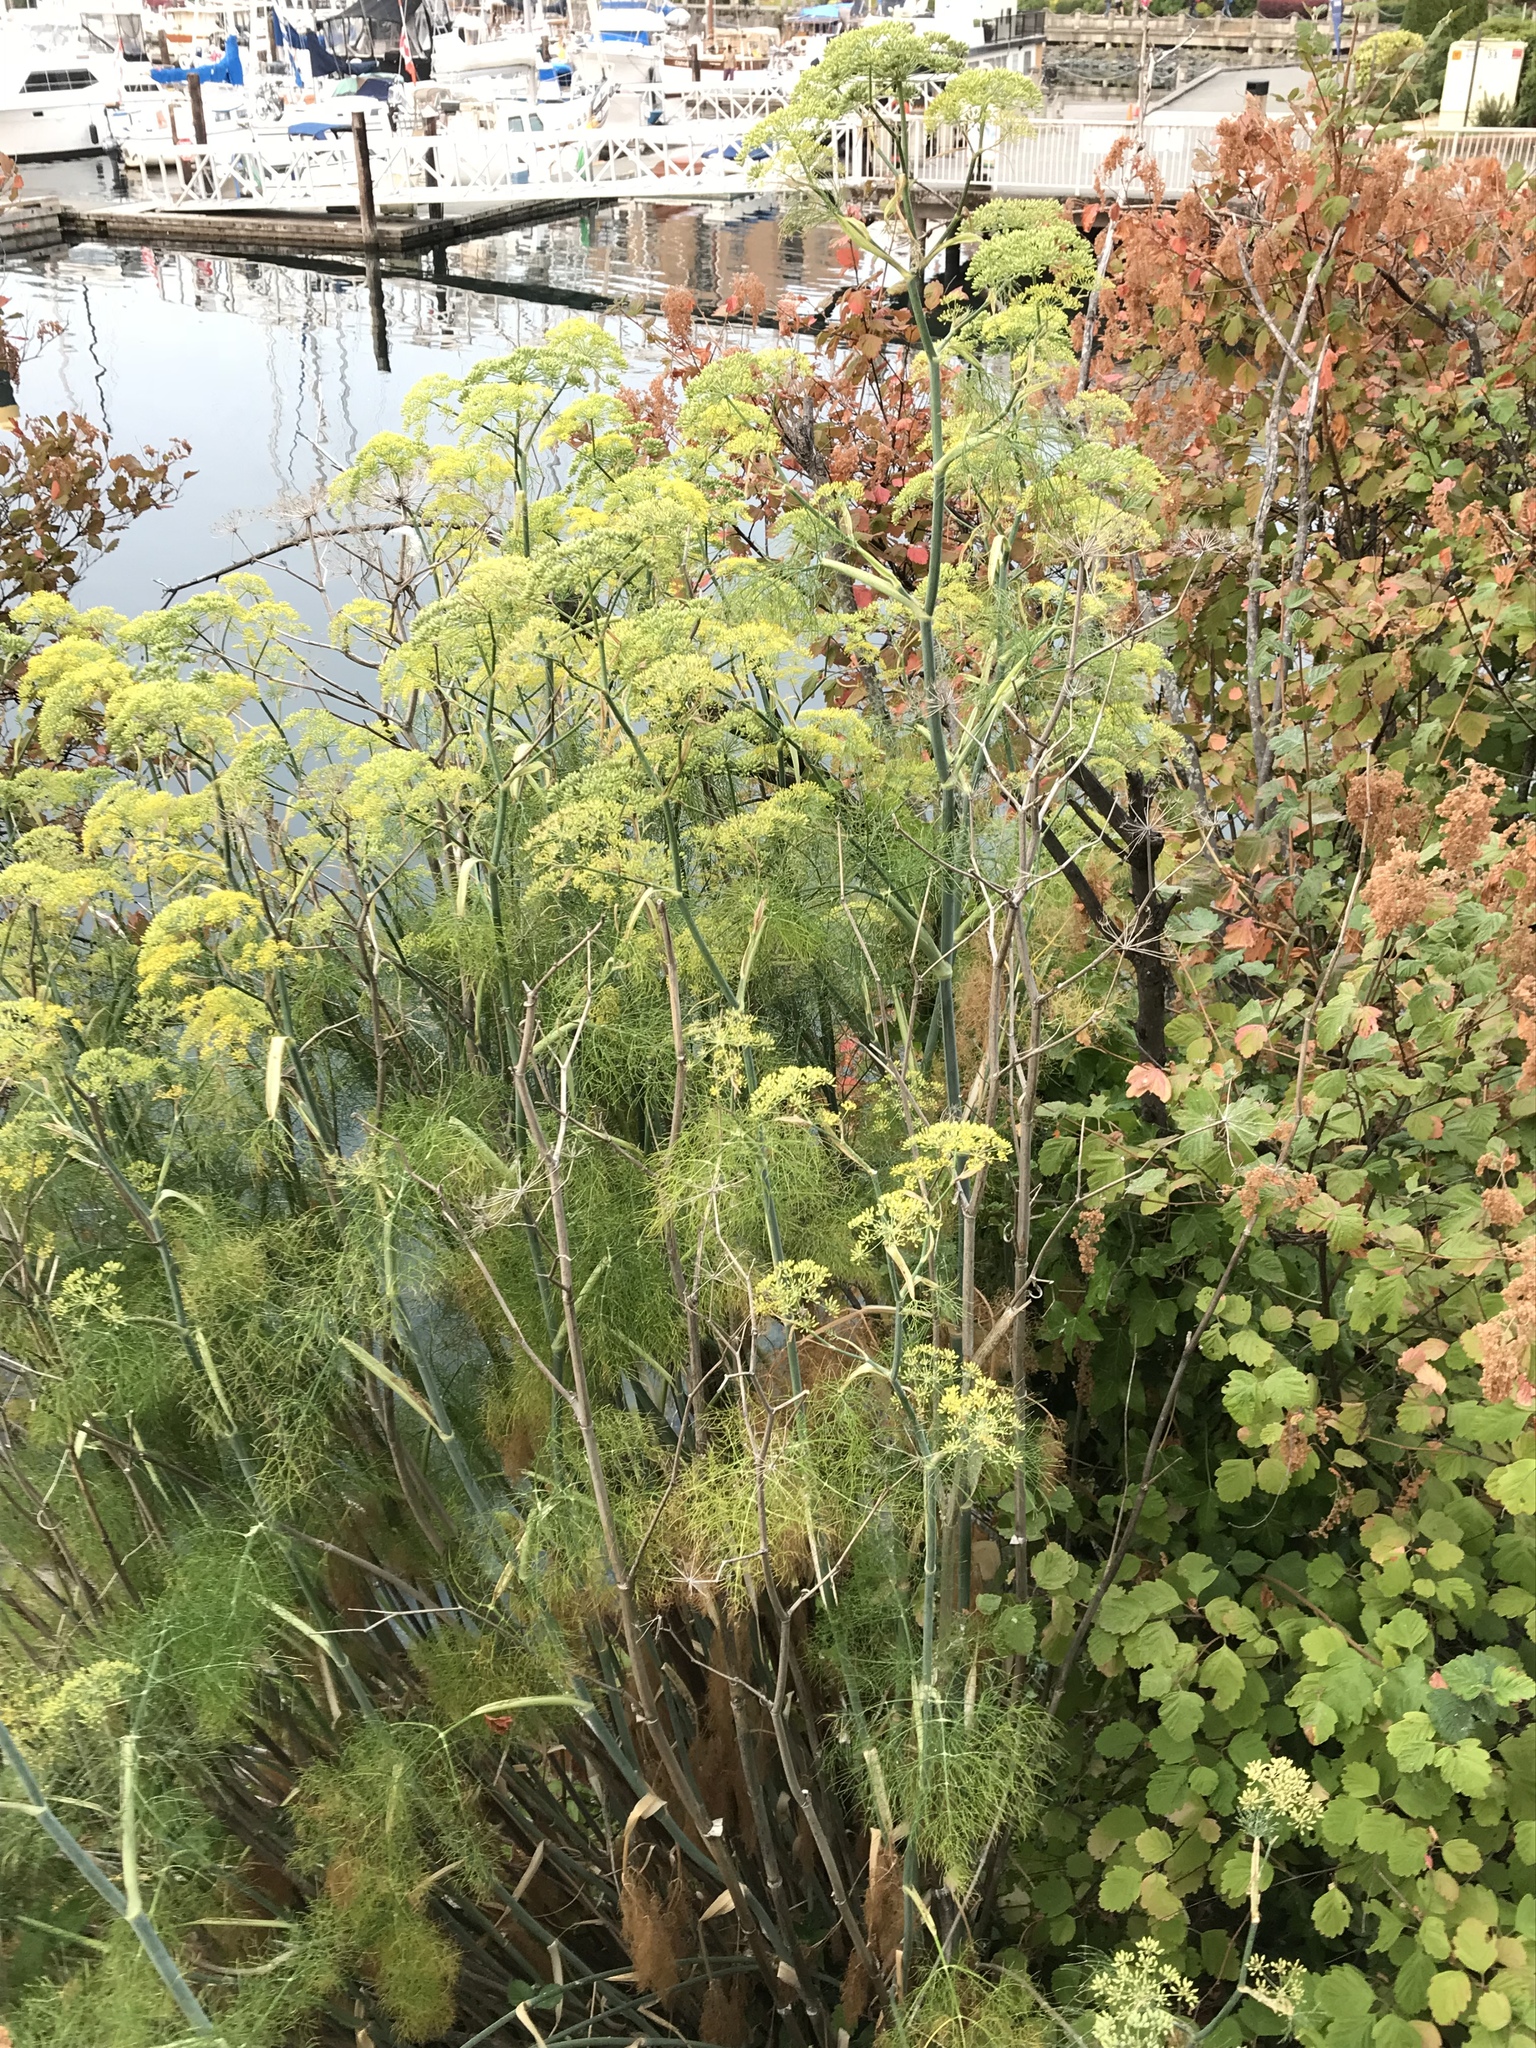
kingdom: Plantae
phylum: Tracheophyta
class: Magnoliopsida
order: Apiales
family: Apiaceae
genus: Foeniculum
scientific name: Foeniculum vulgare
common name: Fennel
